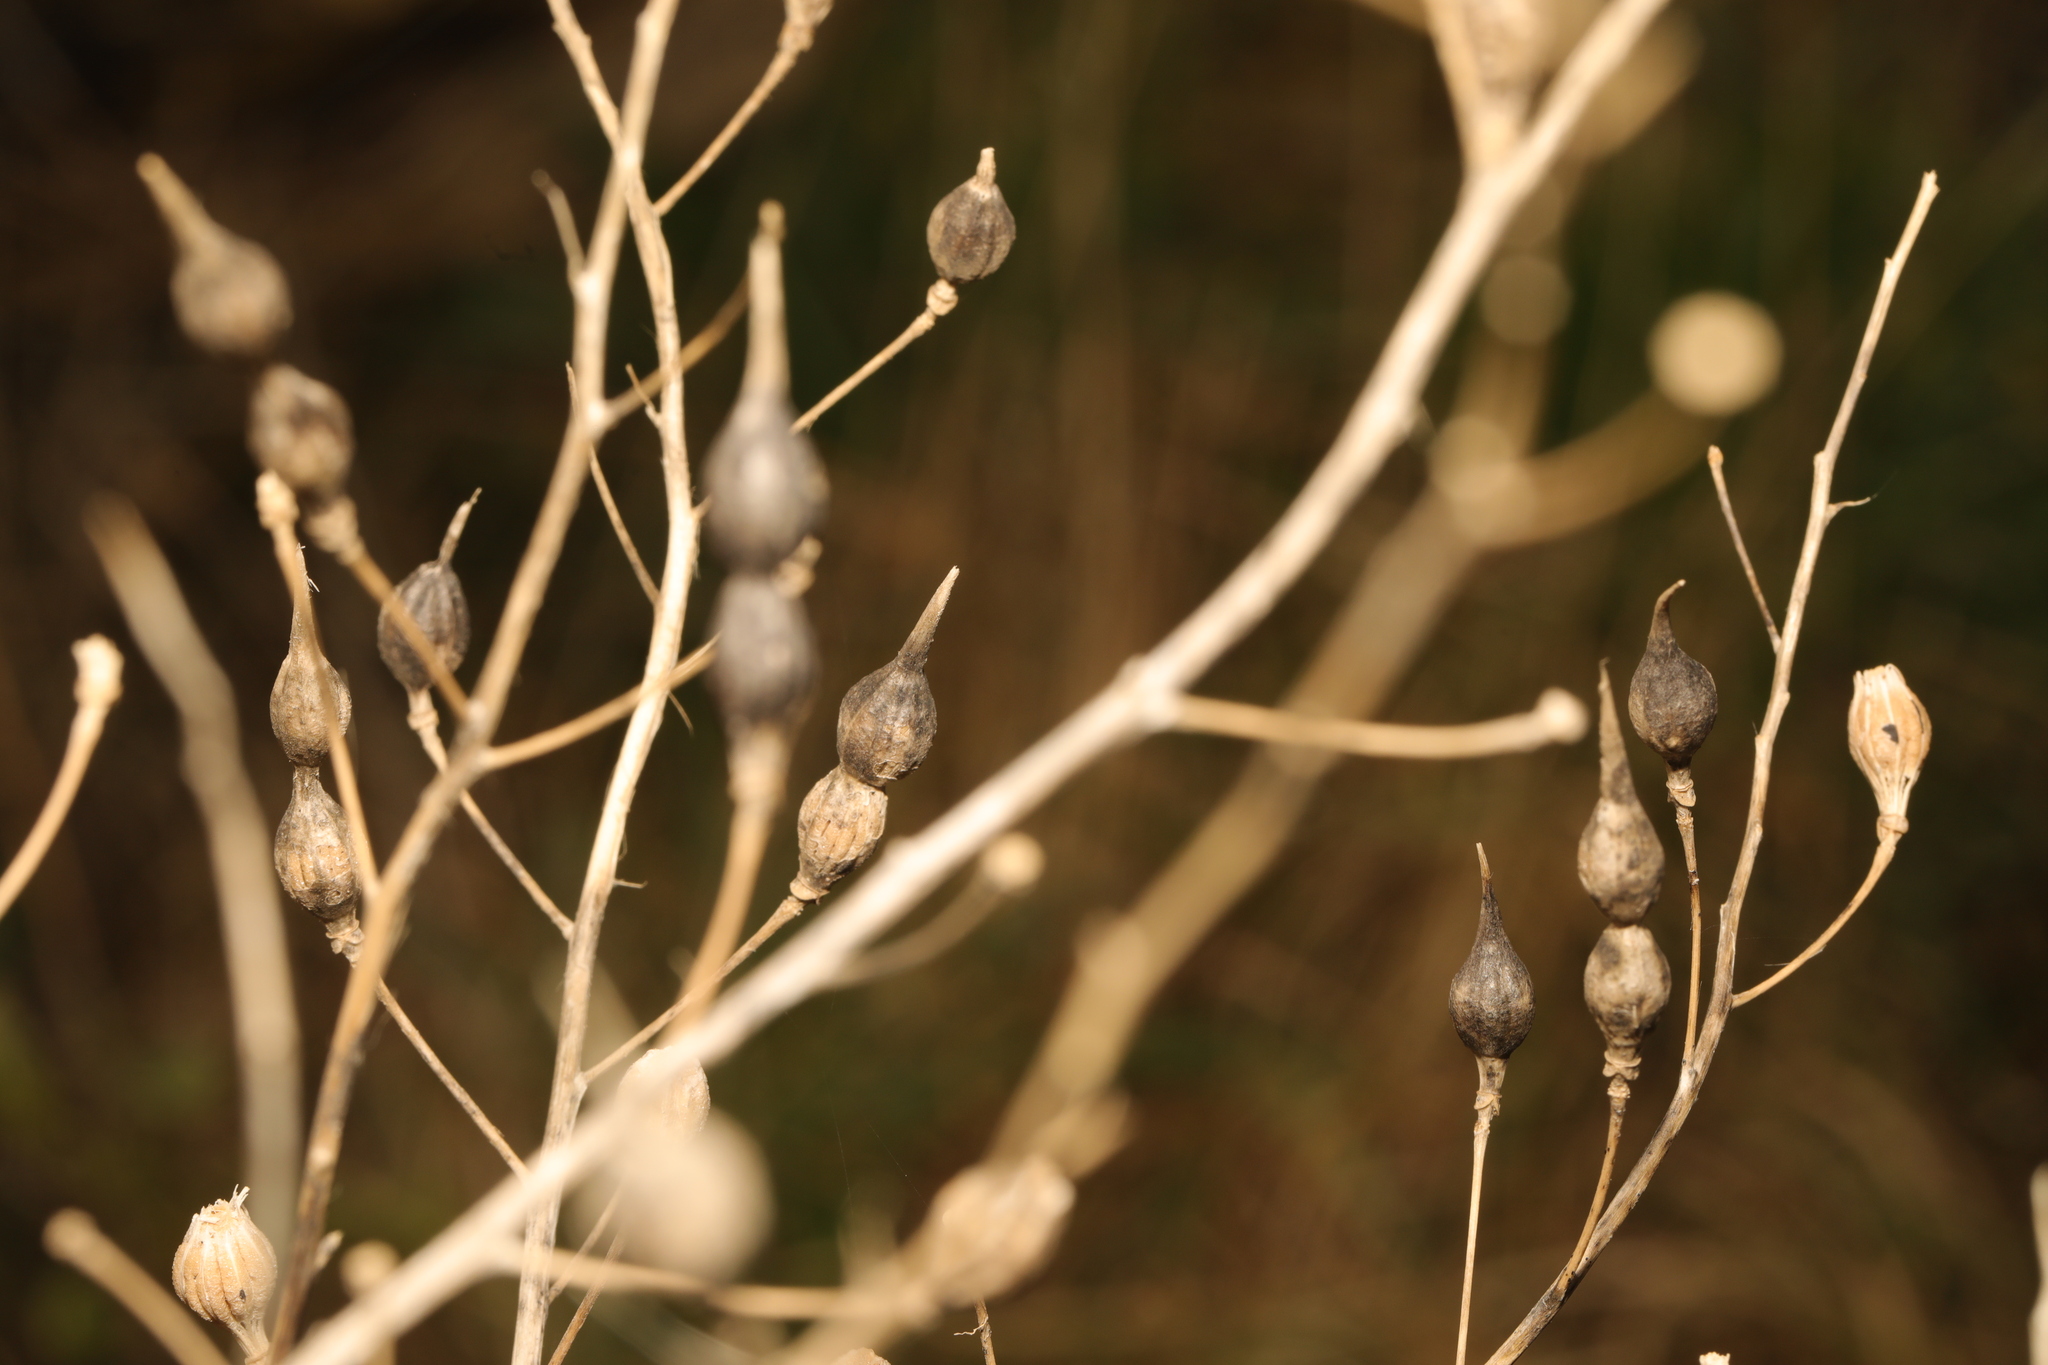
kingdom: Plantae
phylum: Tracheophyta
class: Magnoliopsida
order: Brassicales
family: Brassicaceae
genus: Raphanus
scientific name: Raphanus raphanistrum
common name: Wild radish
